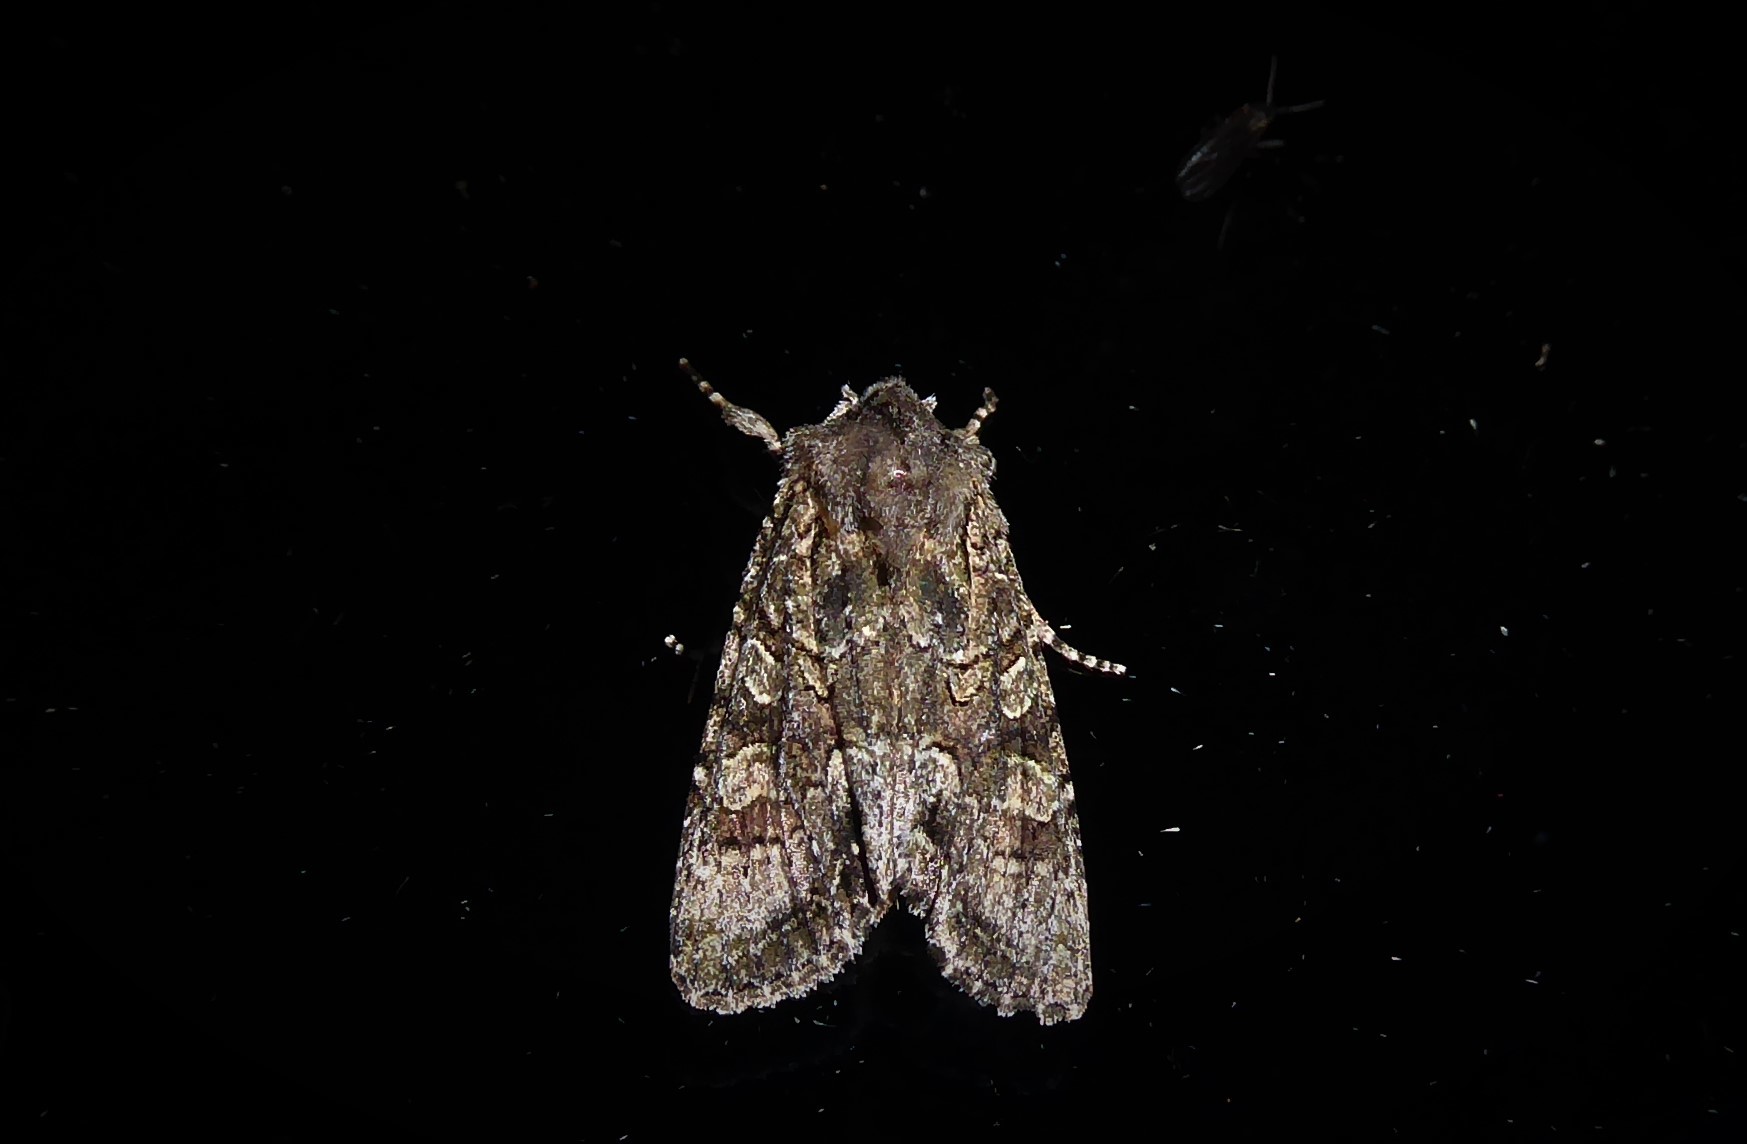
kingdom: Animalia
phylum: Arthropoda
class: Insecta
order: Lepidoptera
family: Noctuidae
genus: Ichneutica
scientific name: Ichneutica mutans
